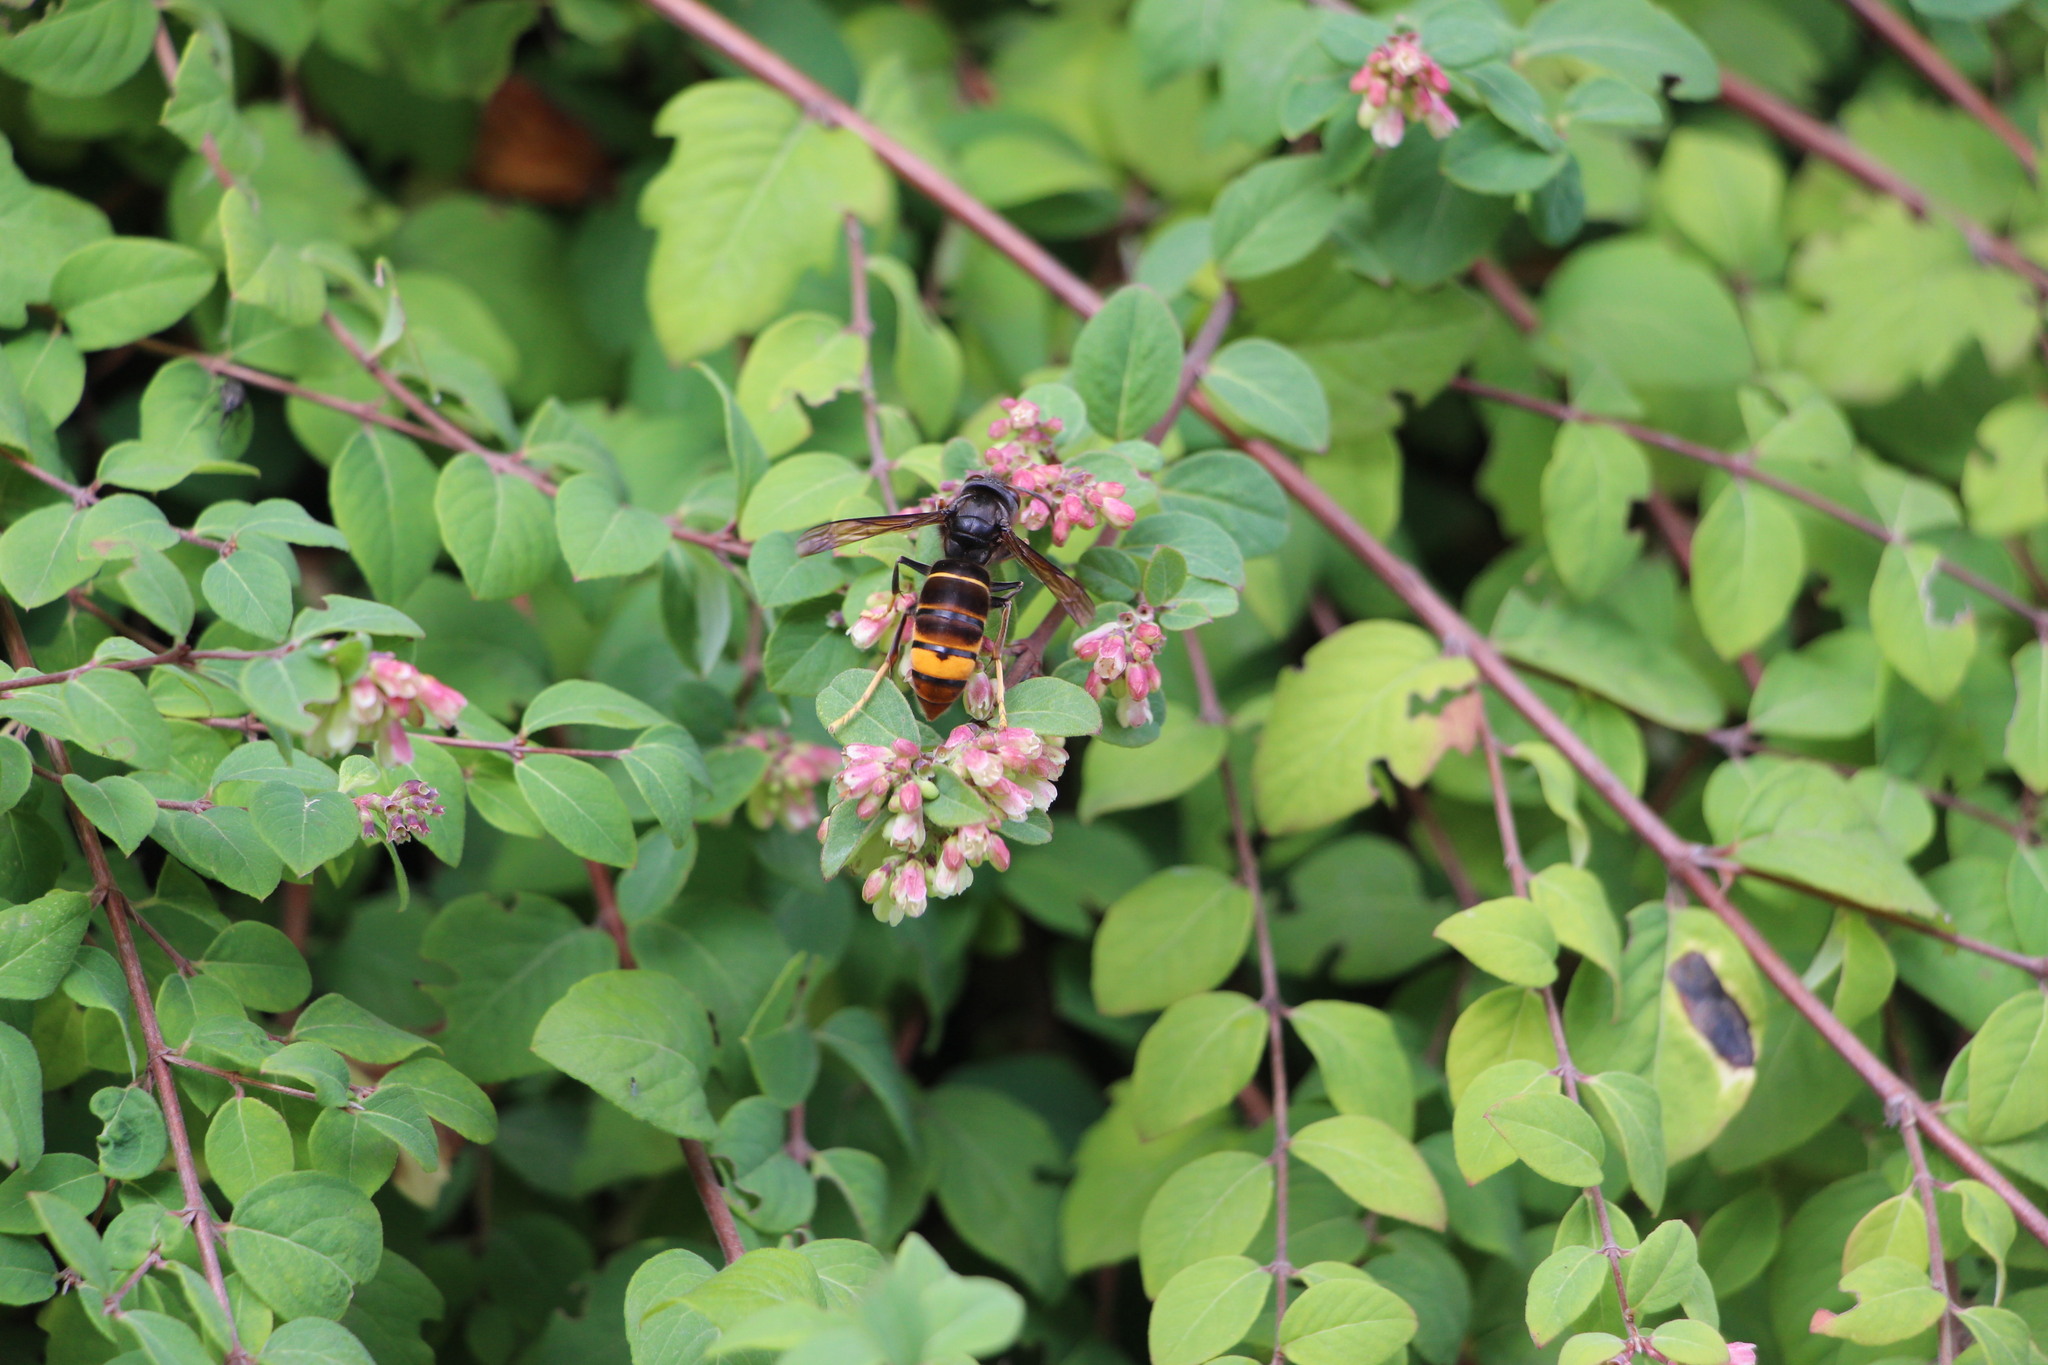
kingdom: Animalia
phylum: Arthropoda
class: Insecta
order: Hymenoptera
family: Vespidae
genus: Vespa
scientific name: Vespa velutina
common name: Asian hornet
